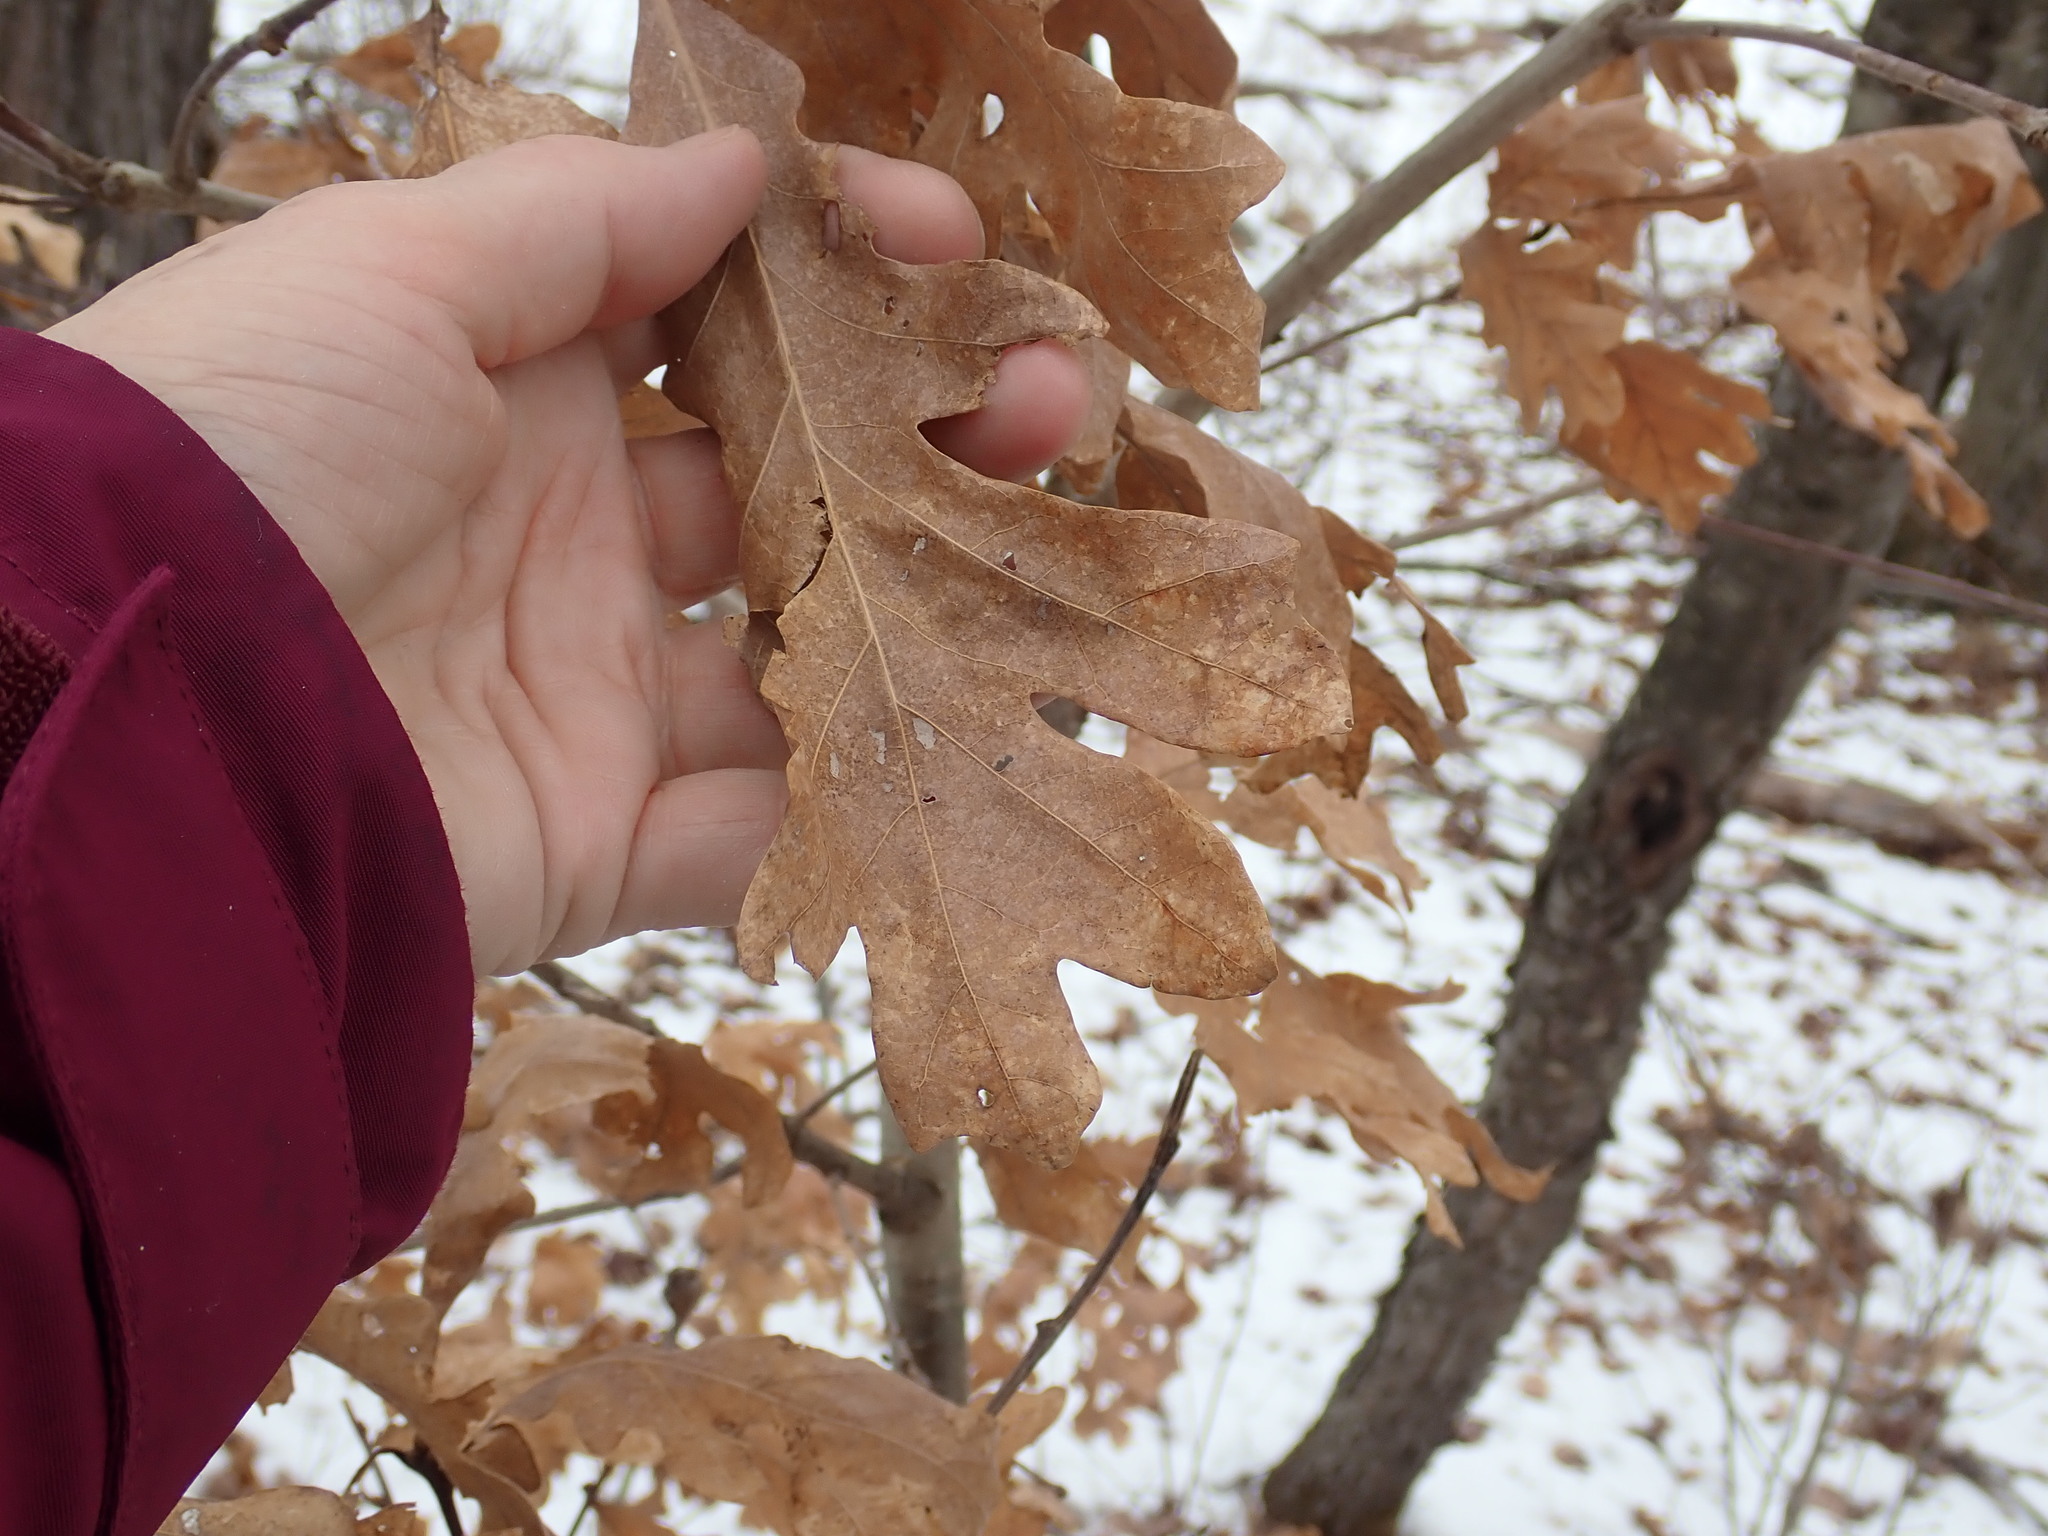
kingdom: Plantae
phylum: Tracheophyta
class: Magnoliopsida
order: Fagales
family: Fagaceae
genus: Quercus
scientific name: Quercus alba
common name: White oak
